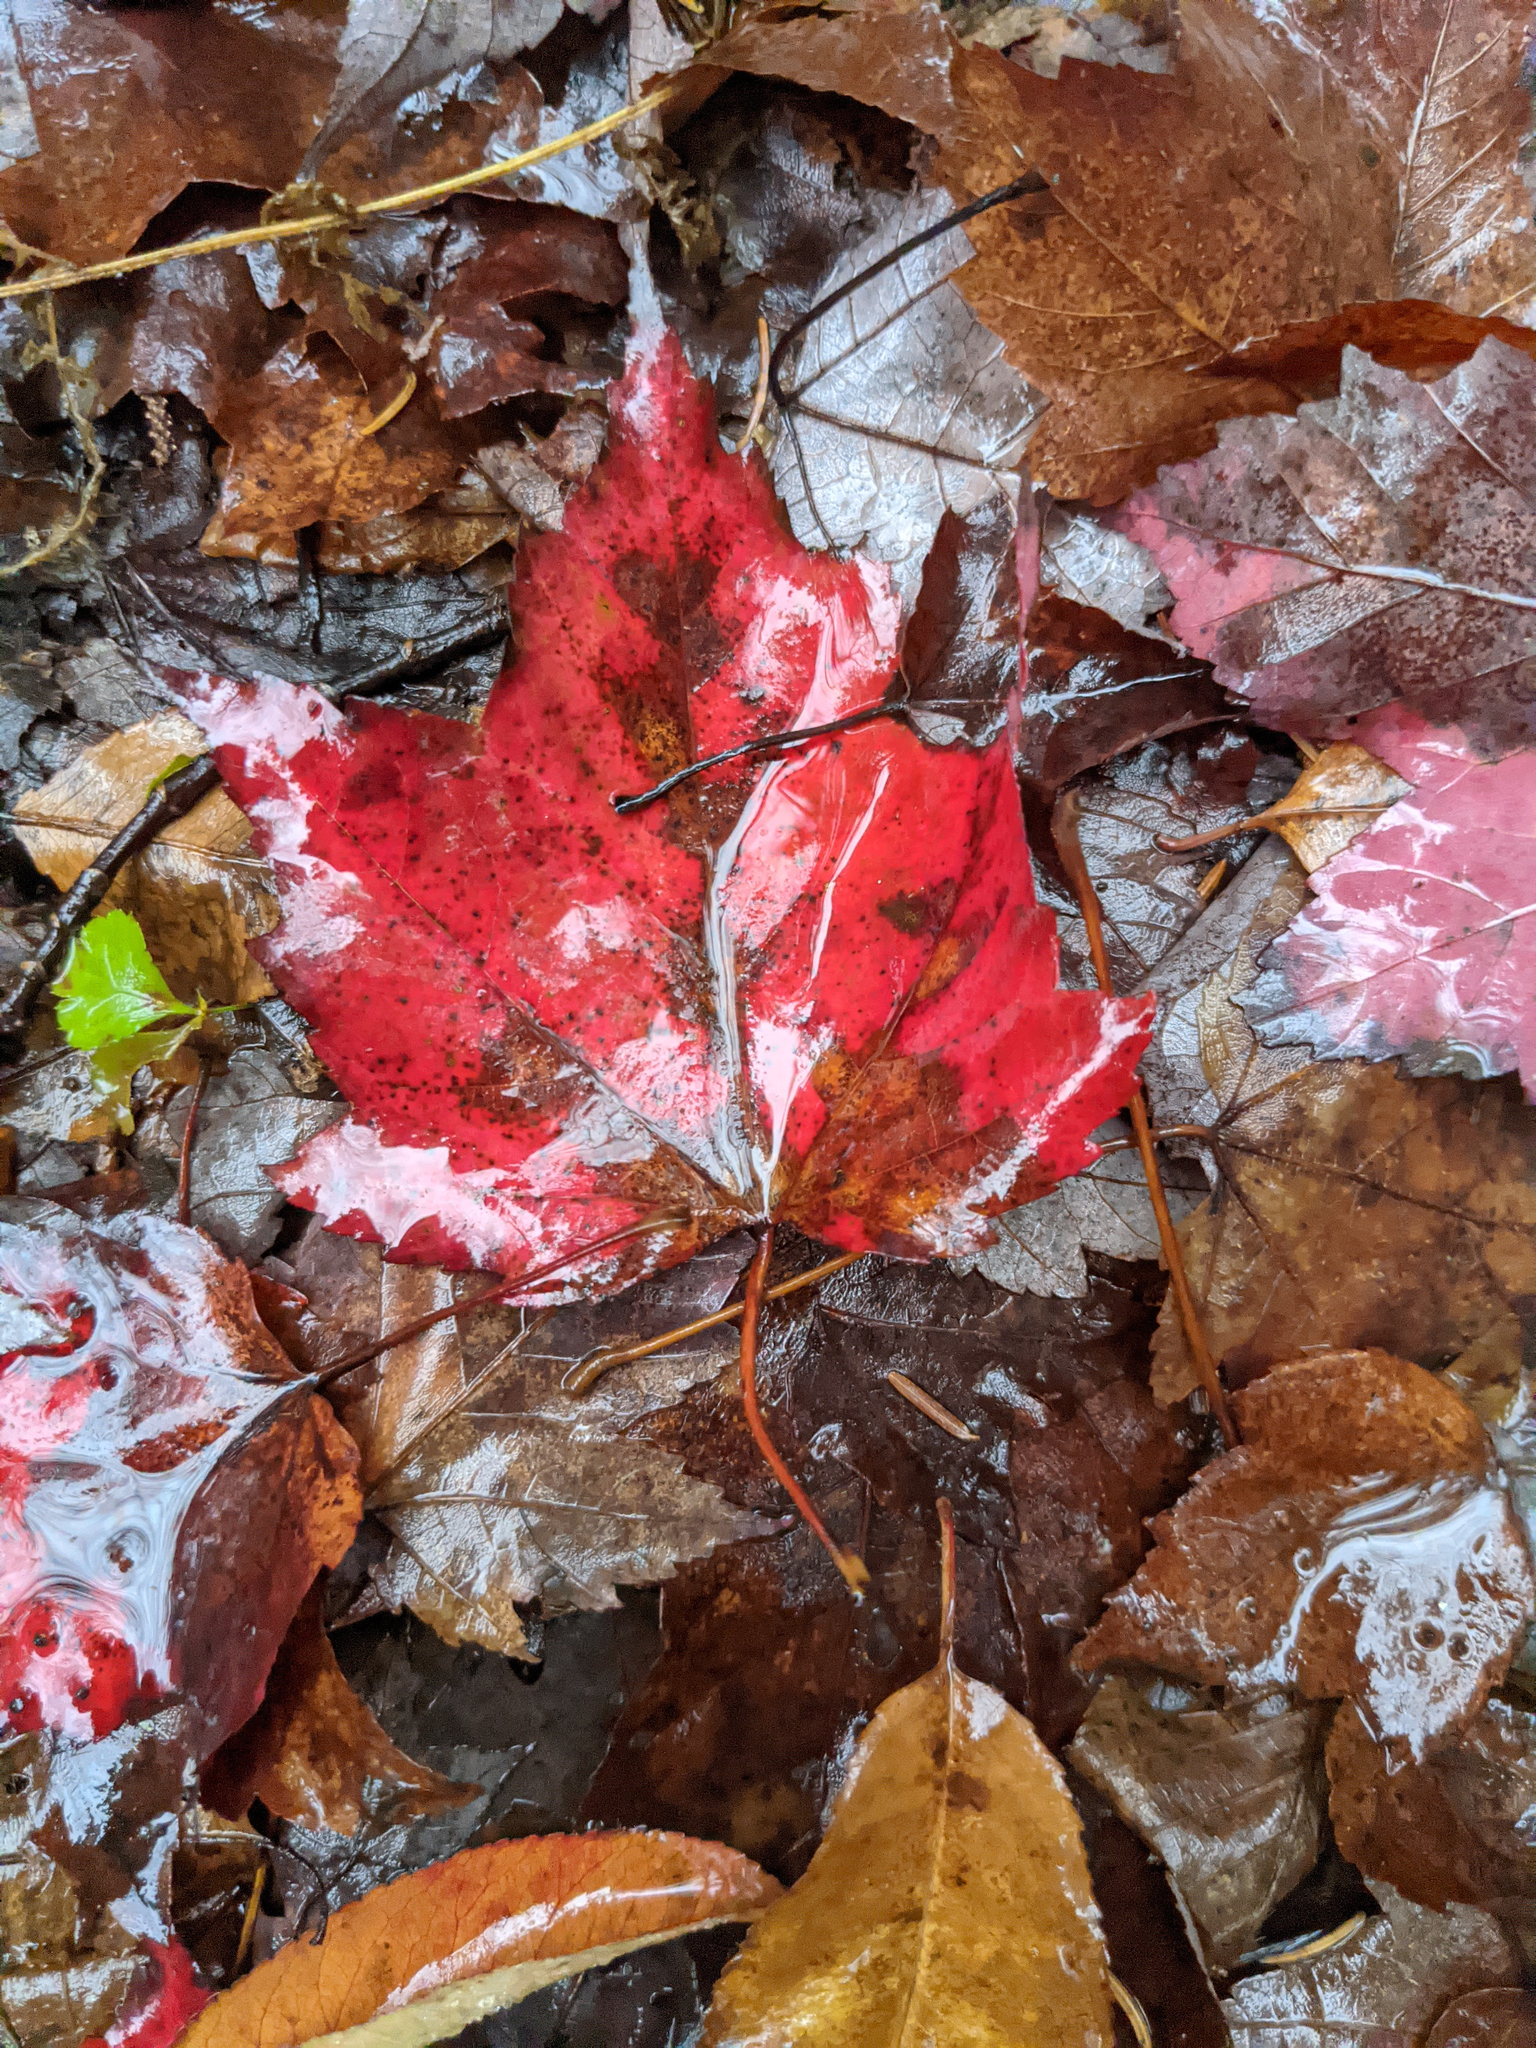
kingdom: Plantae
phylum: Tracheophyta
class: Magnoliopsida
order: Sapindales
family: Sapindaceae
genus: Acer
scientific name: Acer rubrum
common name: Red maple
